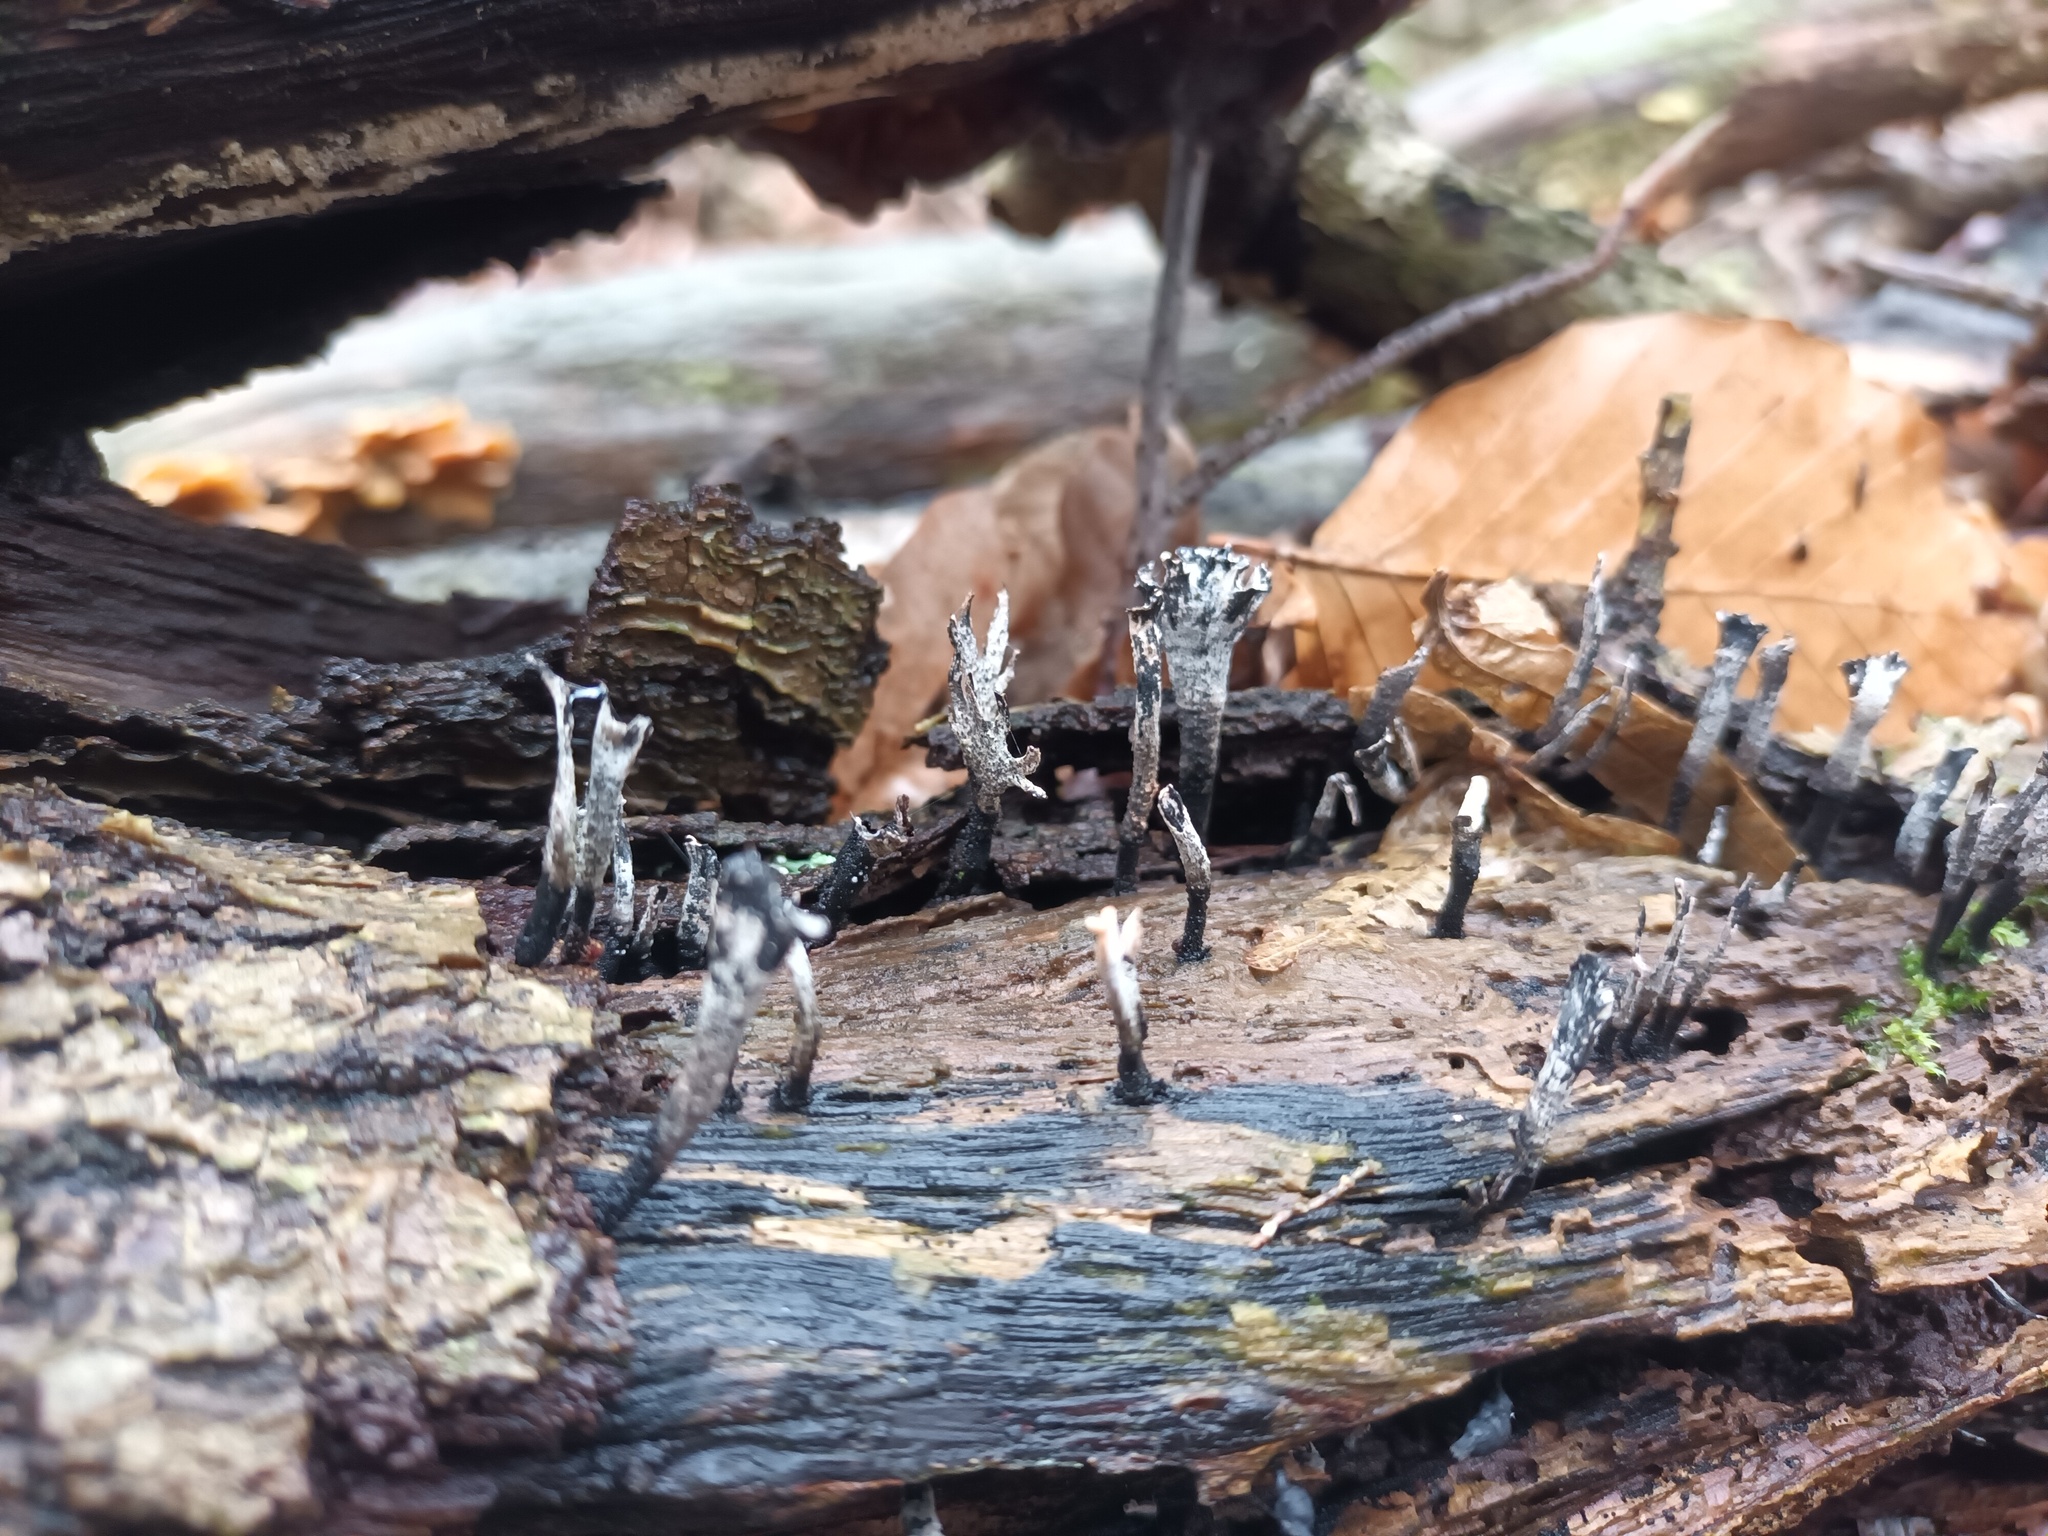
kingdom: Fungi
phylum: Ascomycota
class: Sordariomycetes
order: Xylariales
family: Xylariaceae
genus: Xylaria
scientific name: Xylaria hypoxylon
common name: Candle-snuff fungus
